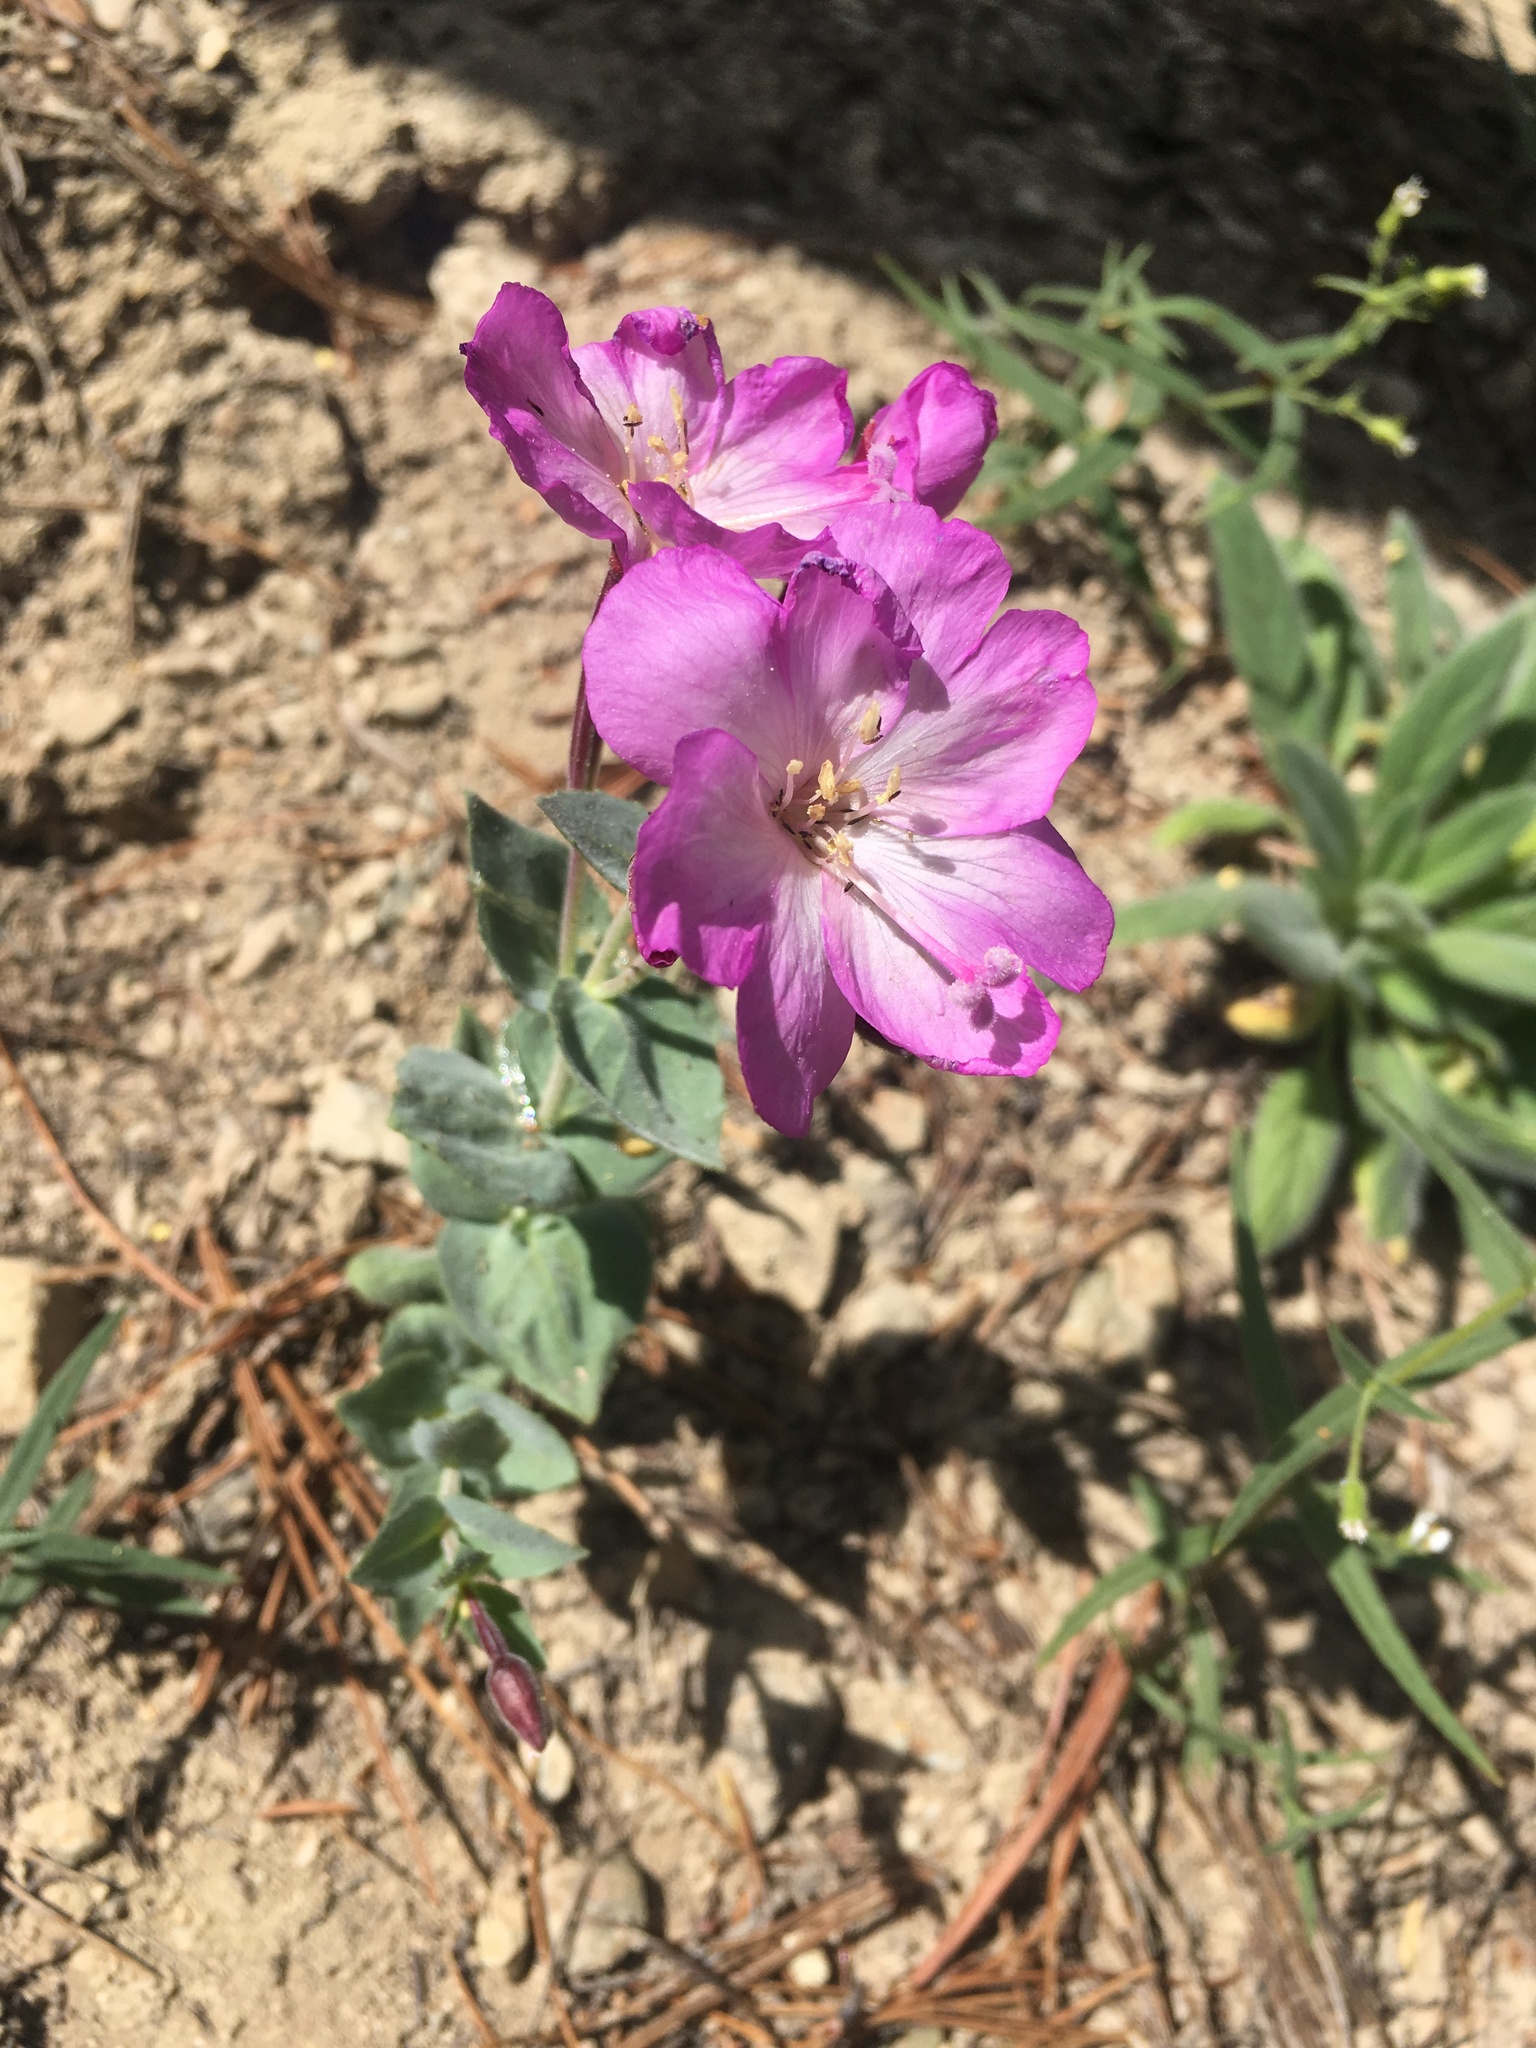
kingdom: Plantae
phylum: Tracheophyta
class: Magnoliopsida
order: Myrtales
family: Onagraceae
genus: Epilobium
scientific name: Epilobium siskiyouense
